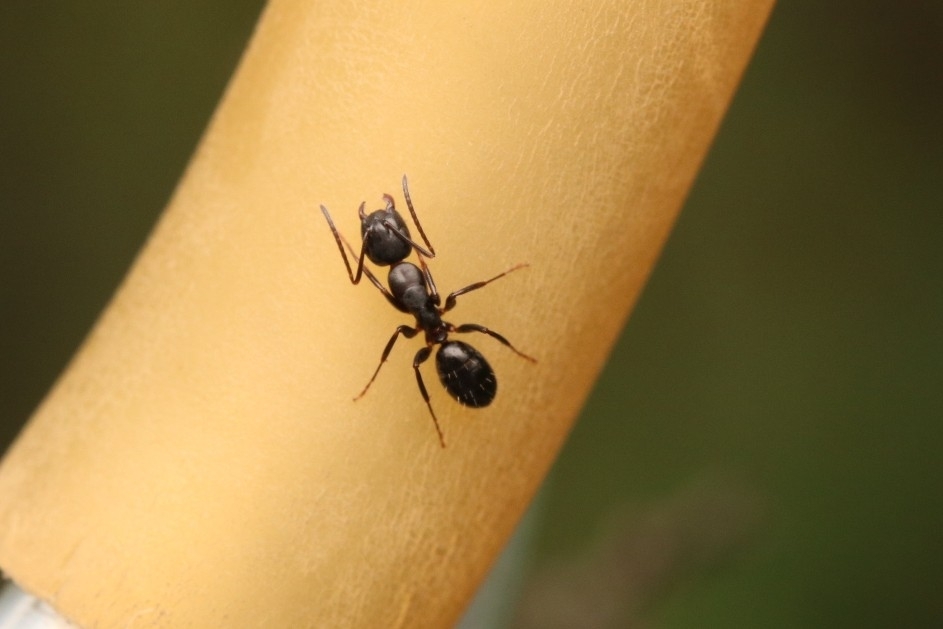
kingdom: Animalia
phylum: Arthropoda
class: Insecta
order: Hymenoptera
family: Formicidae
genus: Camponotus
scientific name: Camponotus nearcticus
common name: Smaller carpenter ant
